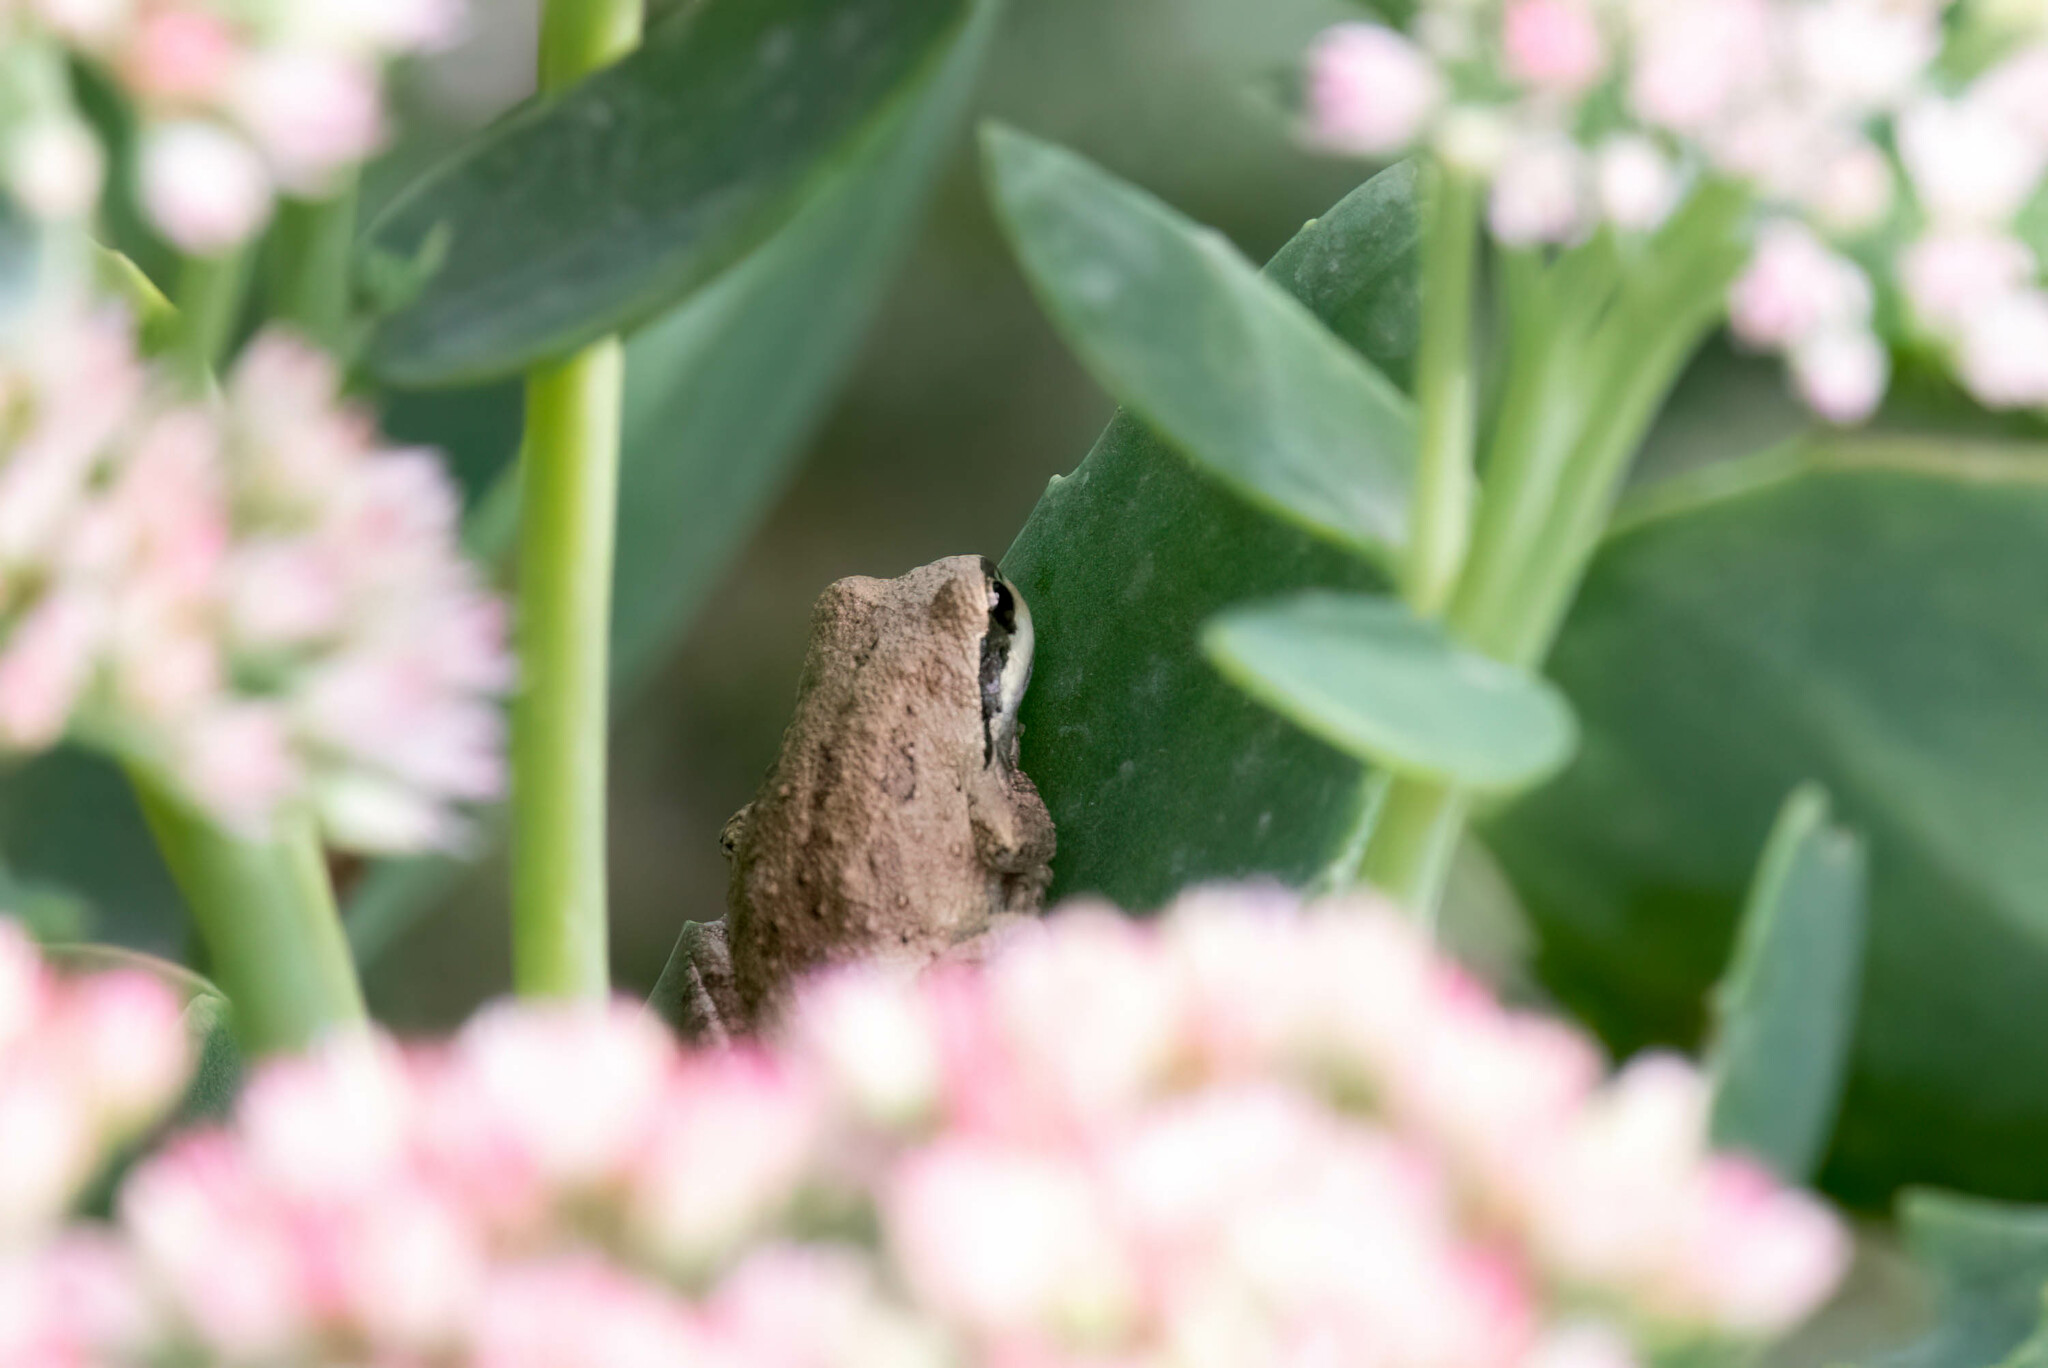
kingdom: Animalia
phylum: Chordata
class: Amphibia
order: Anura
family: Hylidae
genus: Pseudacris
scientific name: Pseudacris regilla
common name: Pacific chorus frog
